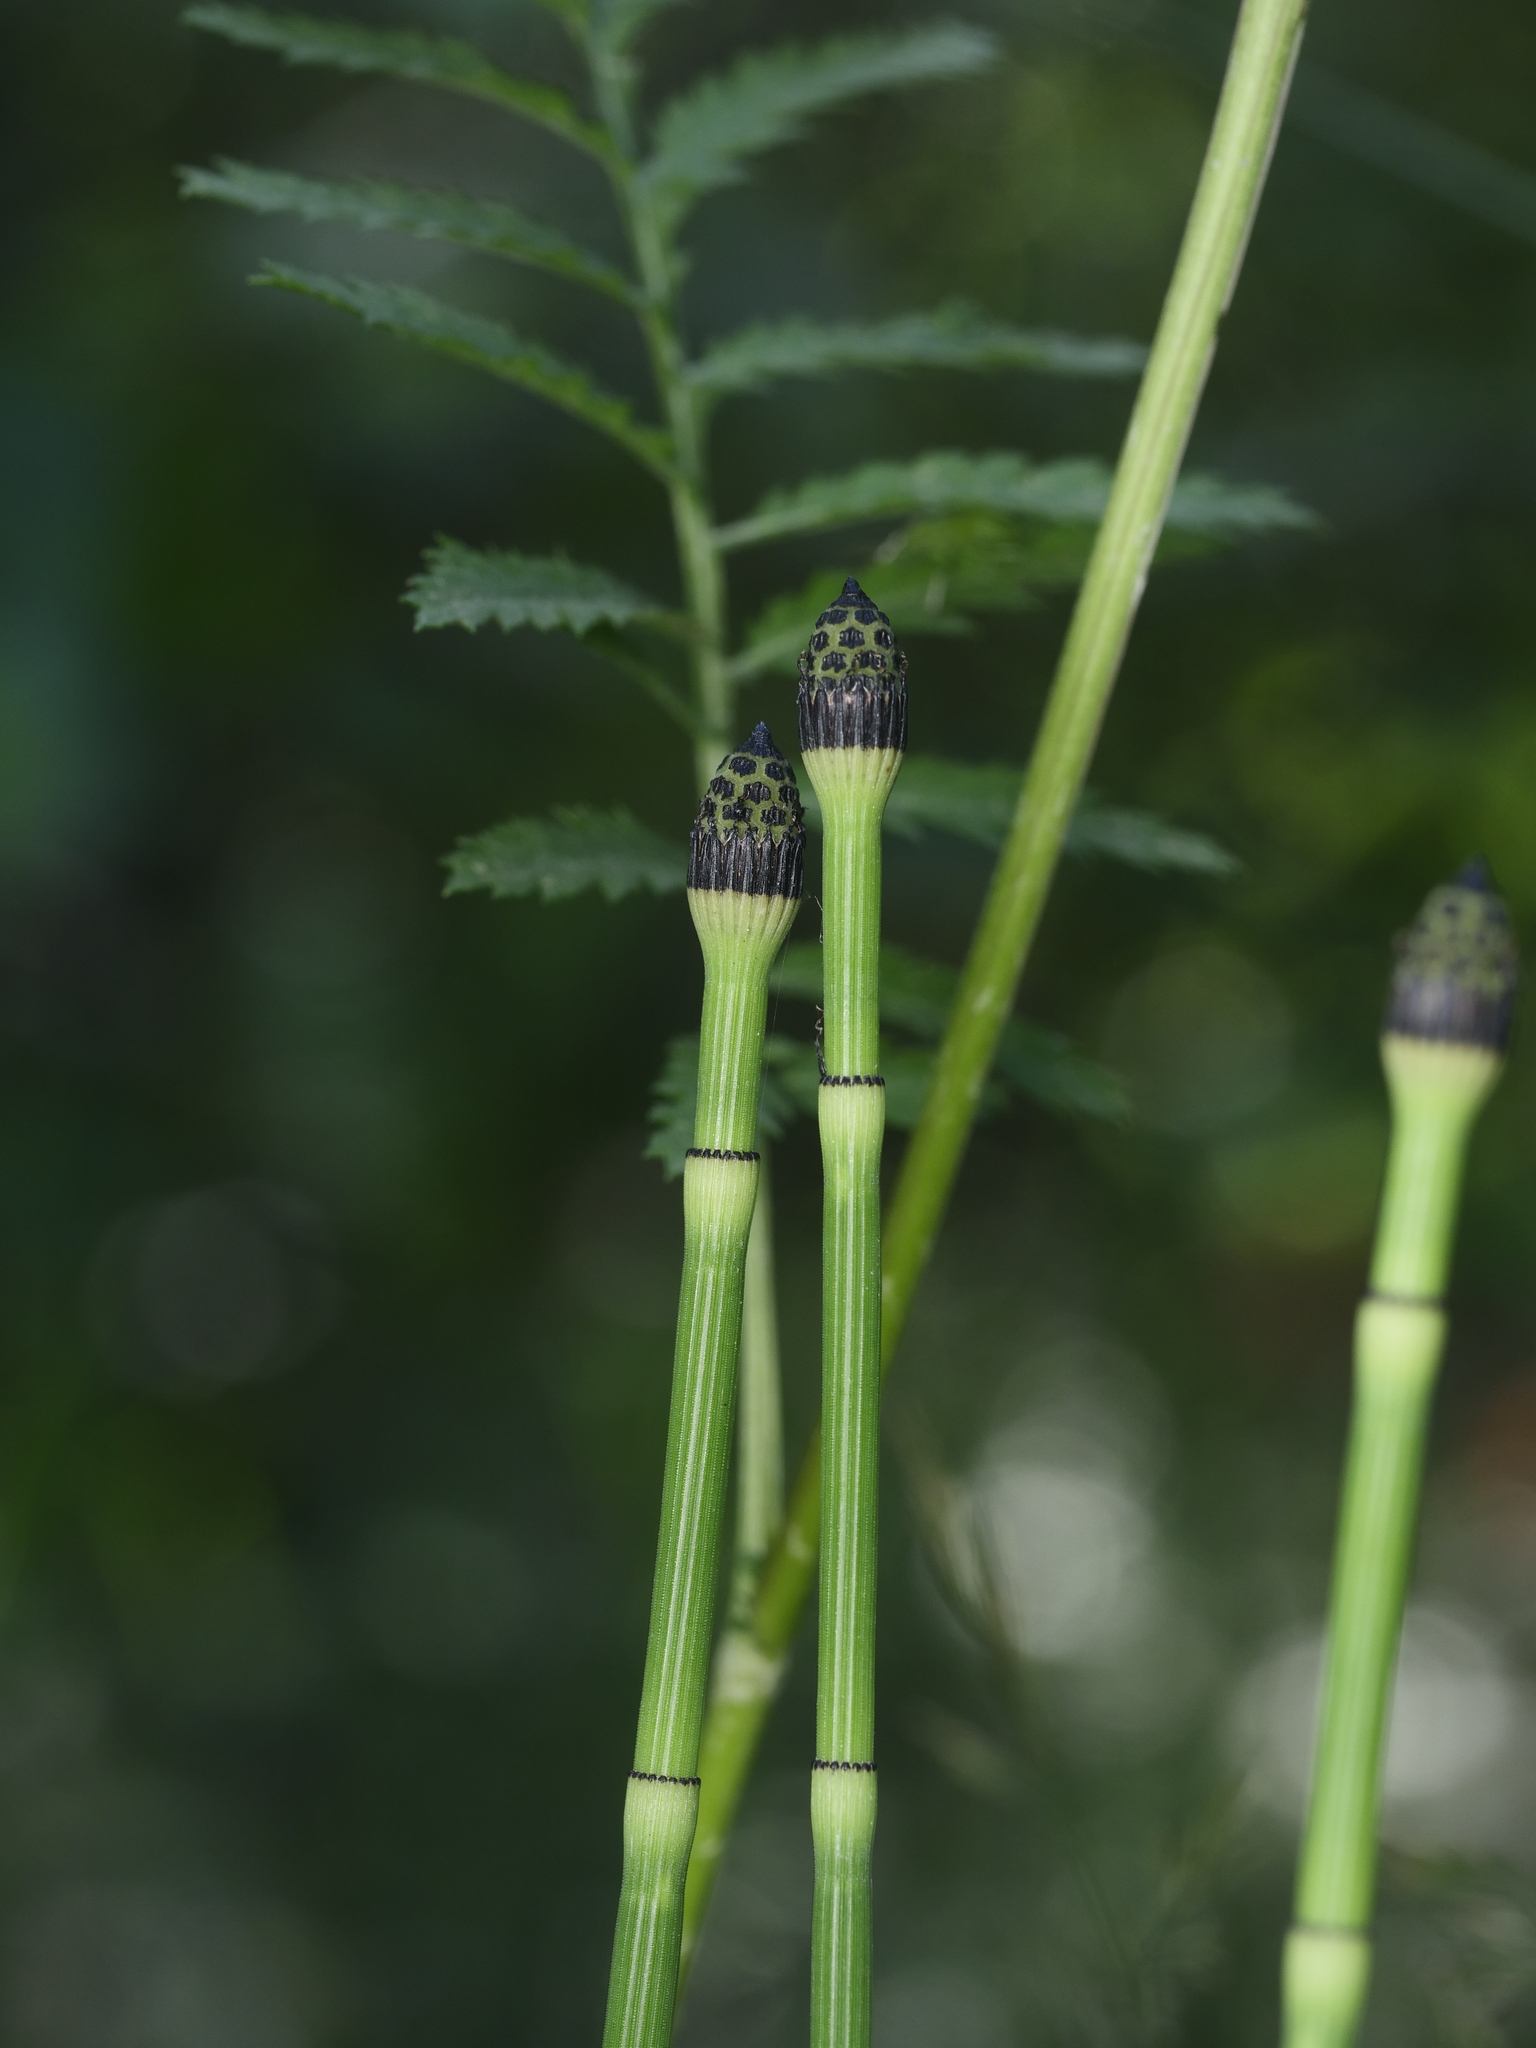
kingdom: Plantae
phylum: Tracheophyta
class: Polypodiopsida
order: Equisetales
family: Equisetaceae
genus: Equisetum
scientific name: Equisetum hyemale
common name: Rough horsetail
